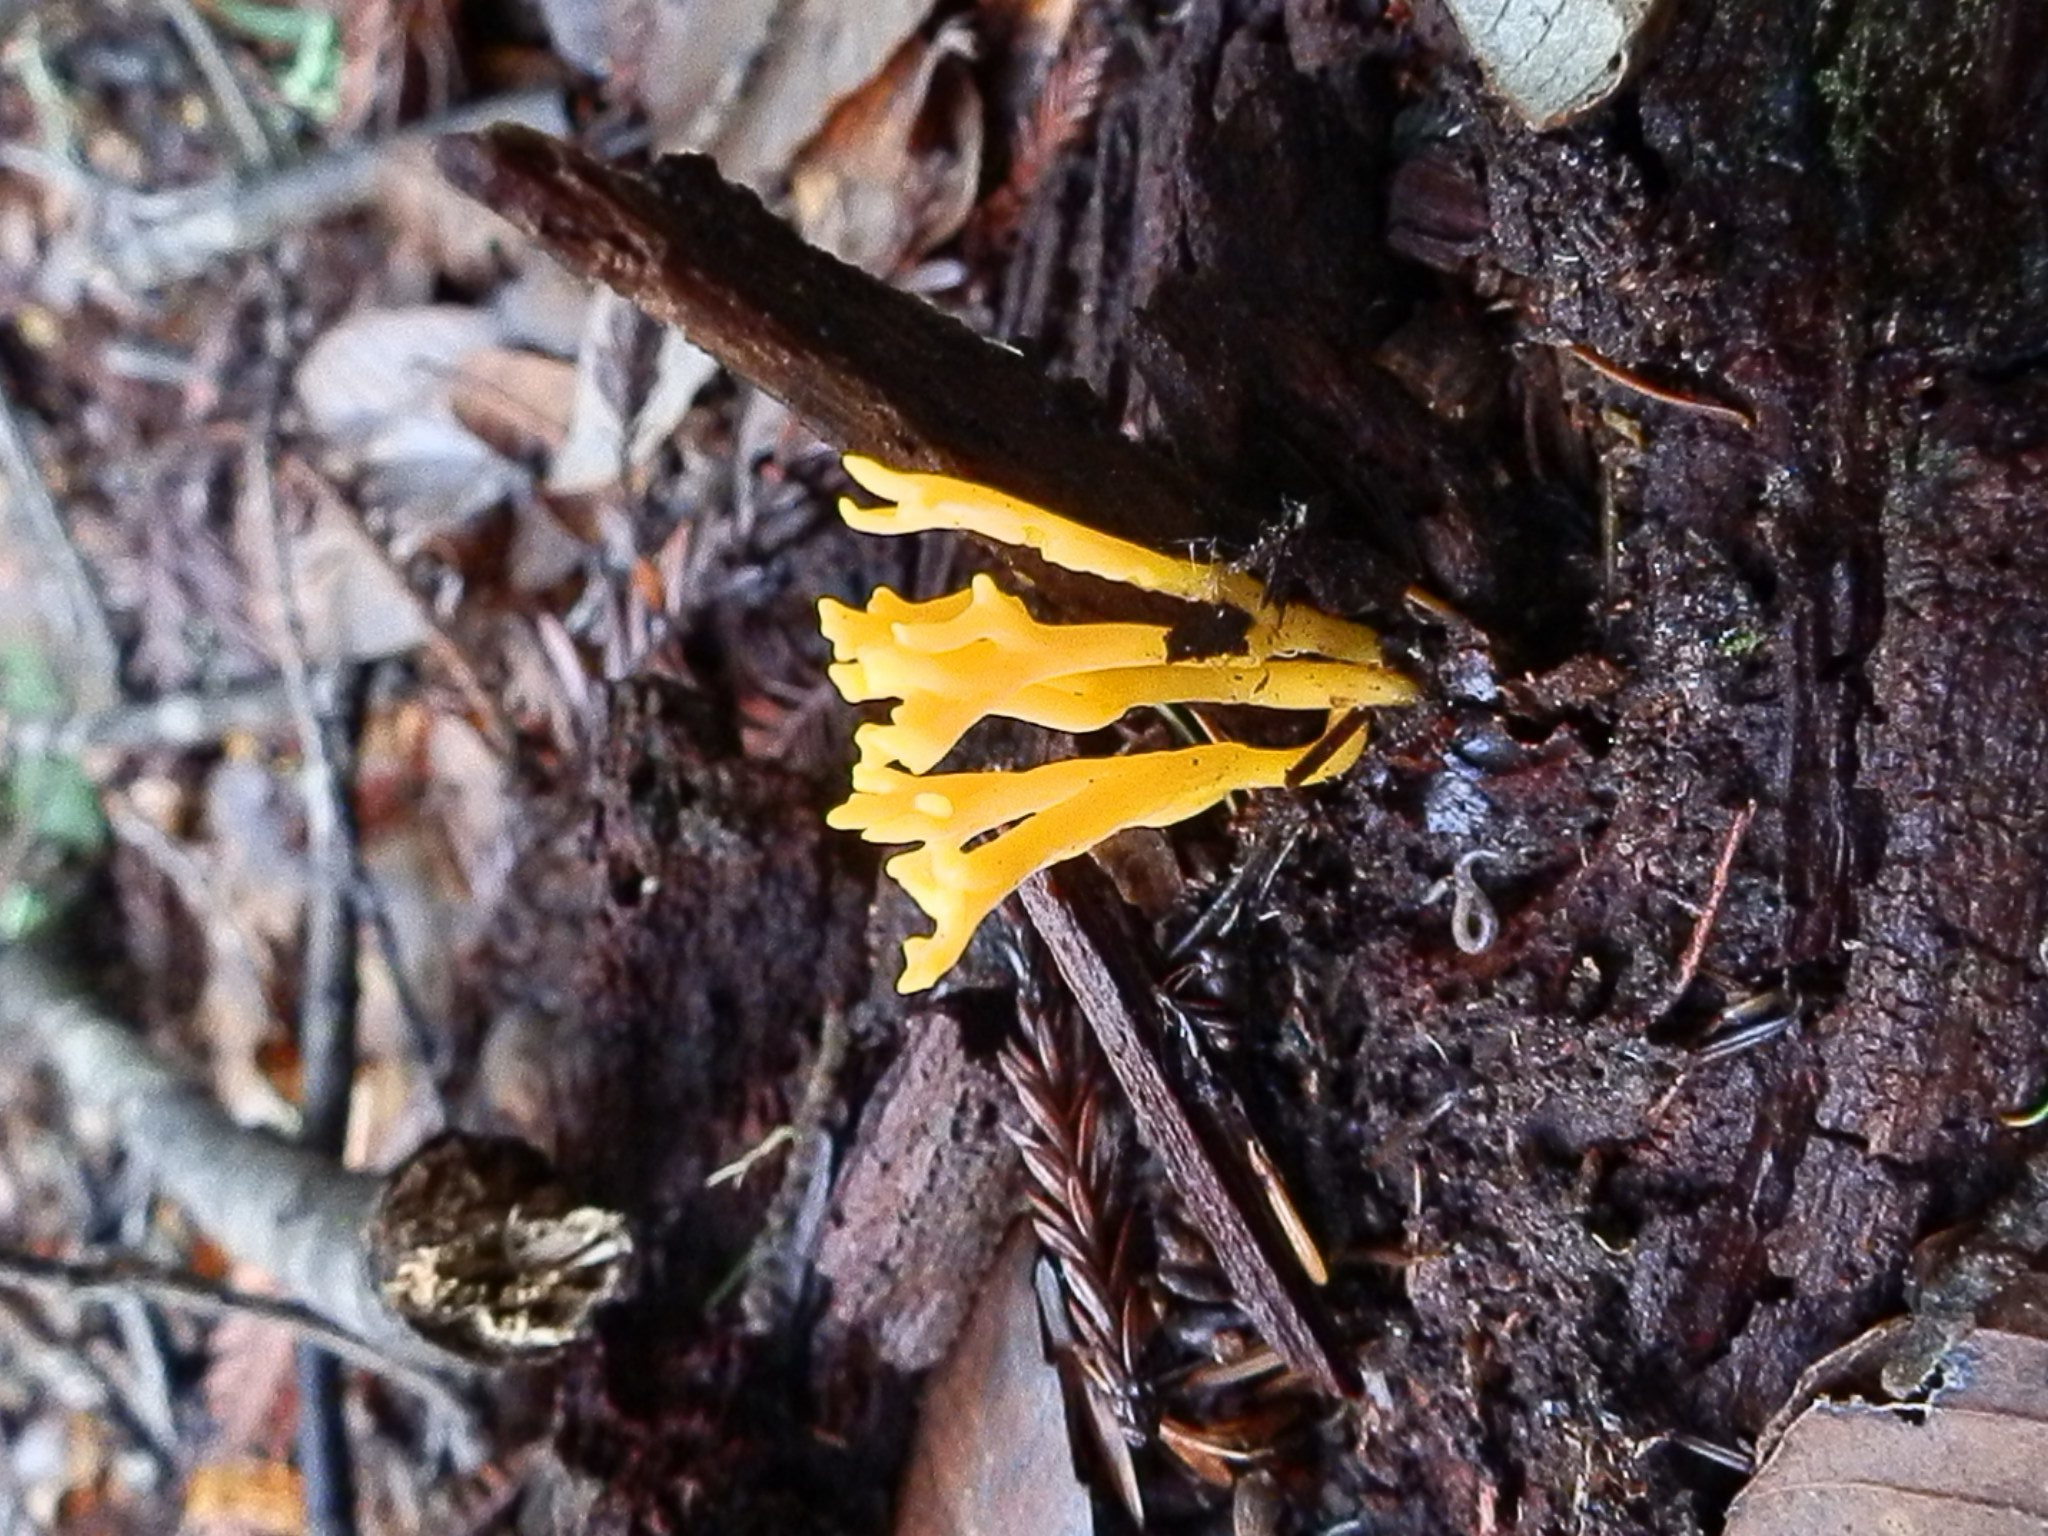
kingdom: Fungi
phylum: Basidiomycota
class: Agaricomycetes
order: Agaricales
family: Clavariaceae
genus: Clavulinopsis
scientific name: Clavulinopsis corniculata
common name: Meadow coral
